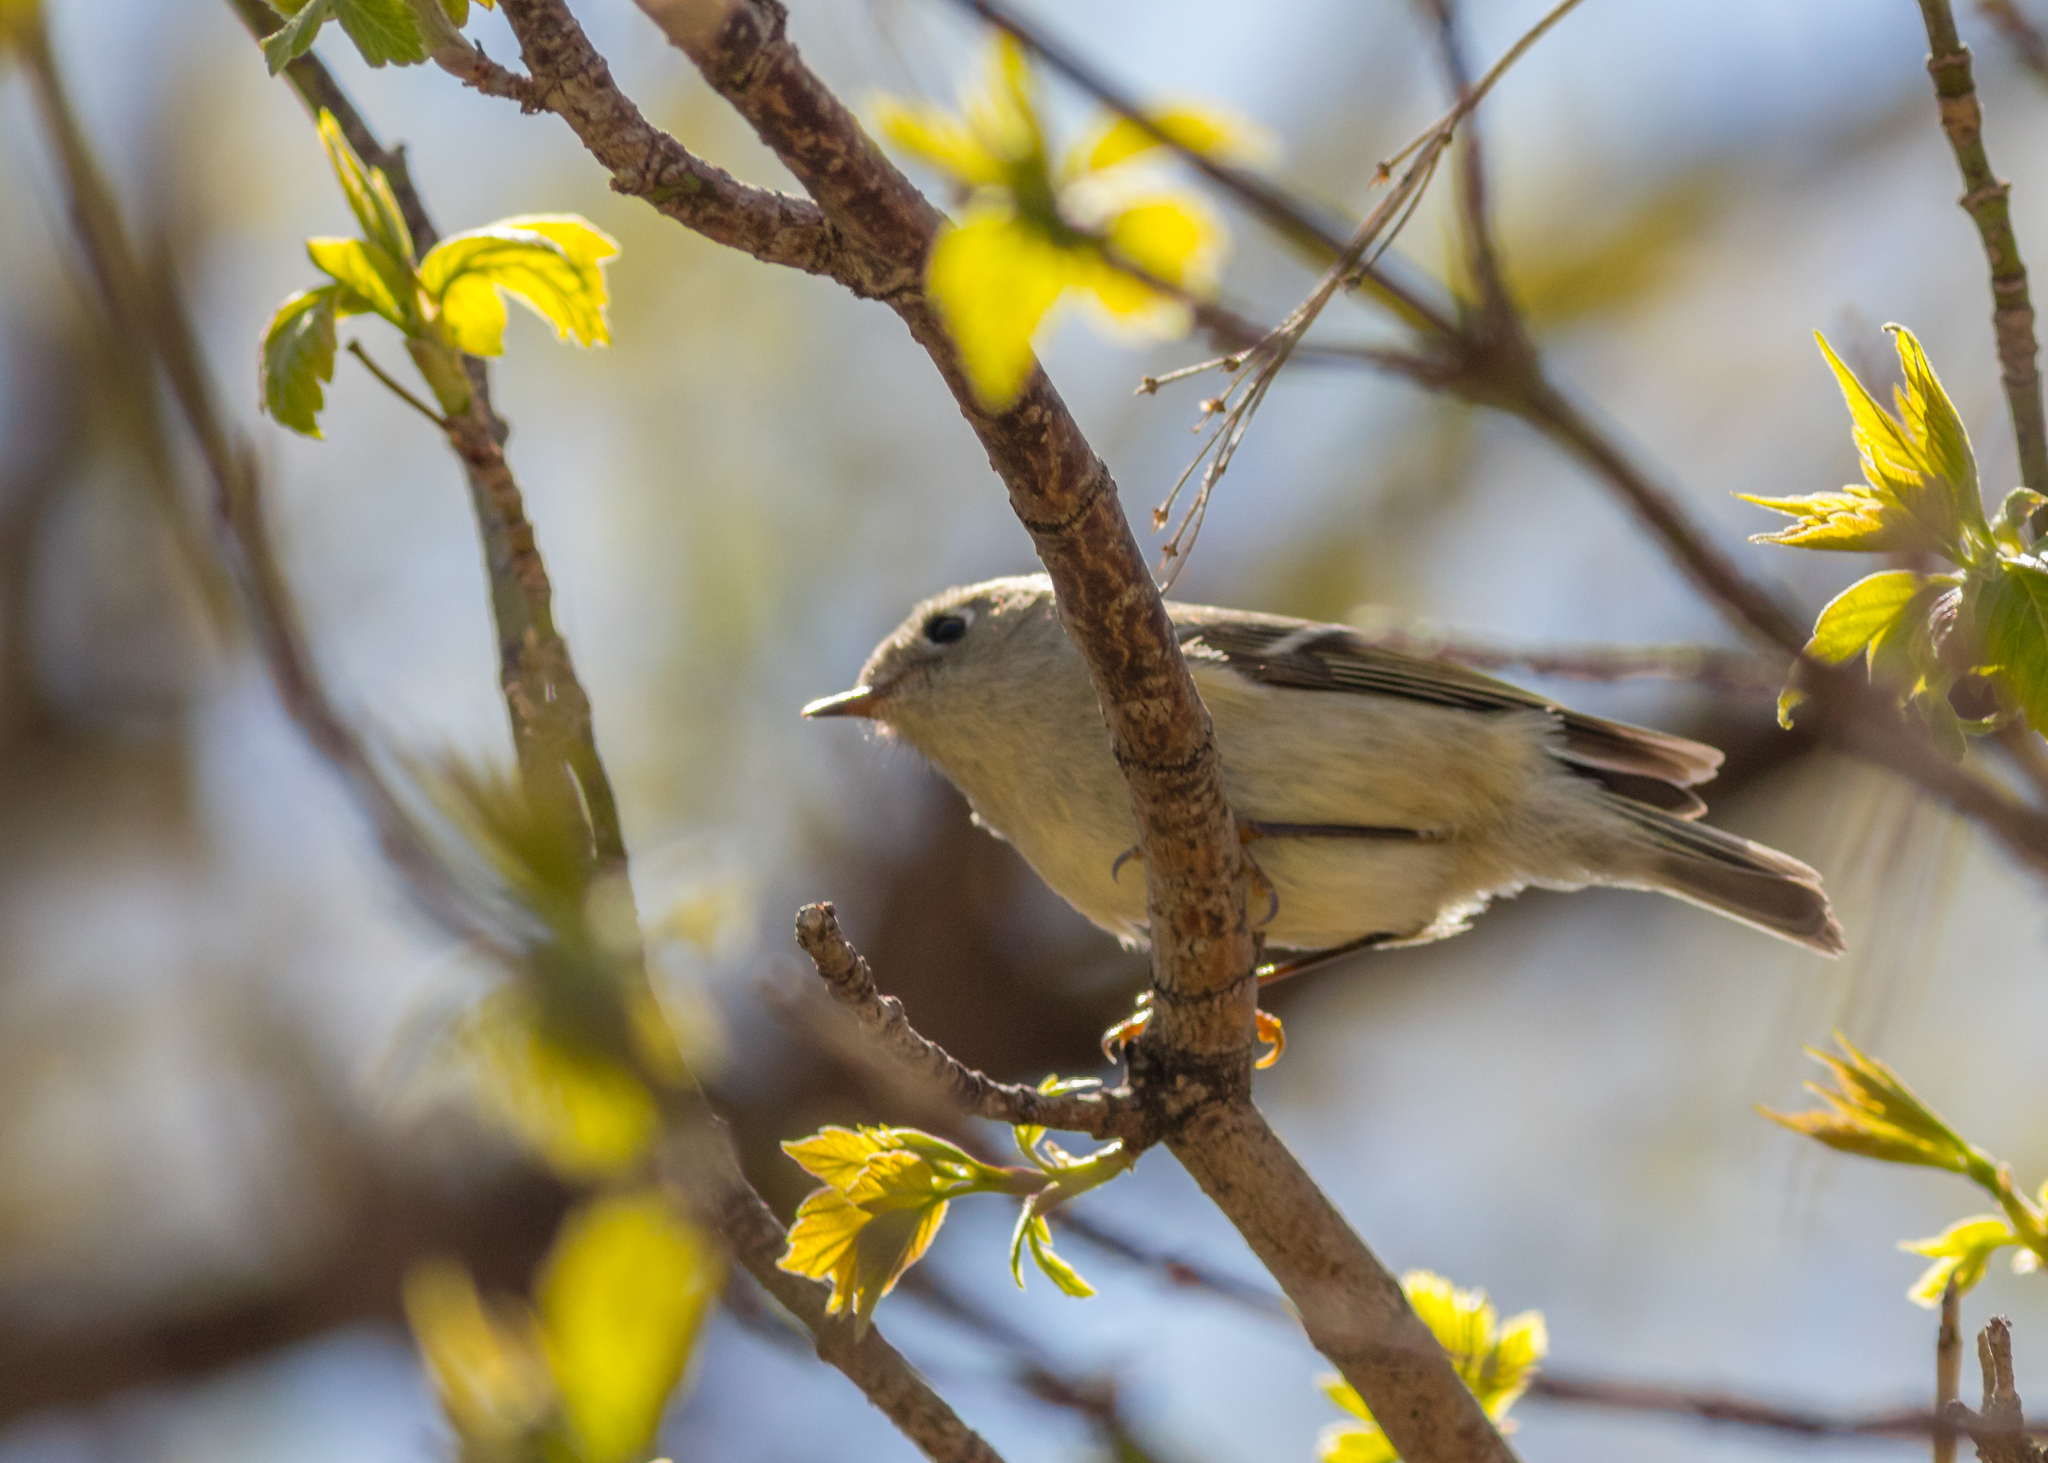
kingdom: Animalia
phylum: Chordata
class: Aves
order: Passeriformes
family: Regulidae
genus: Regulus
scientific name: Regulus calendula
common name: Ruby-crowned kinglet
